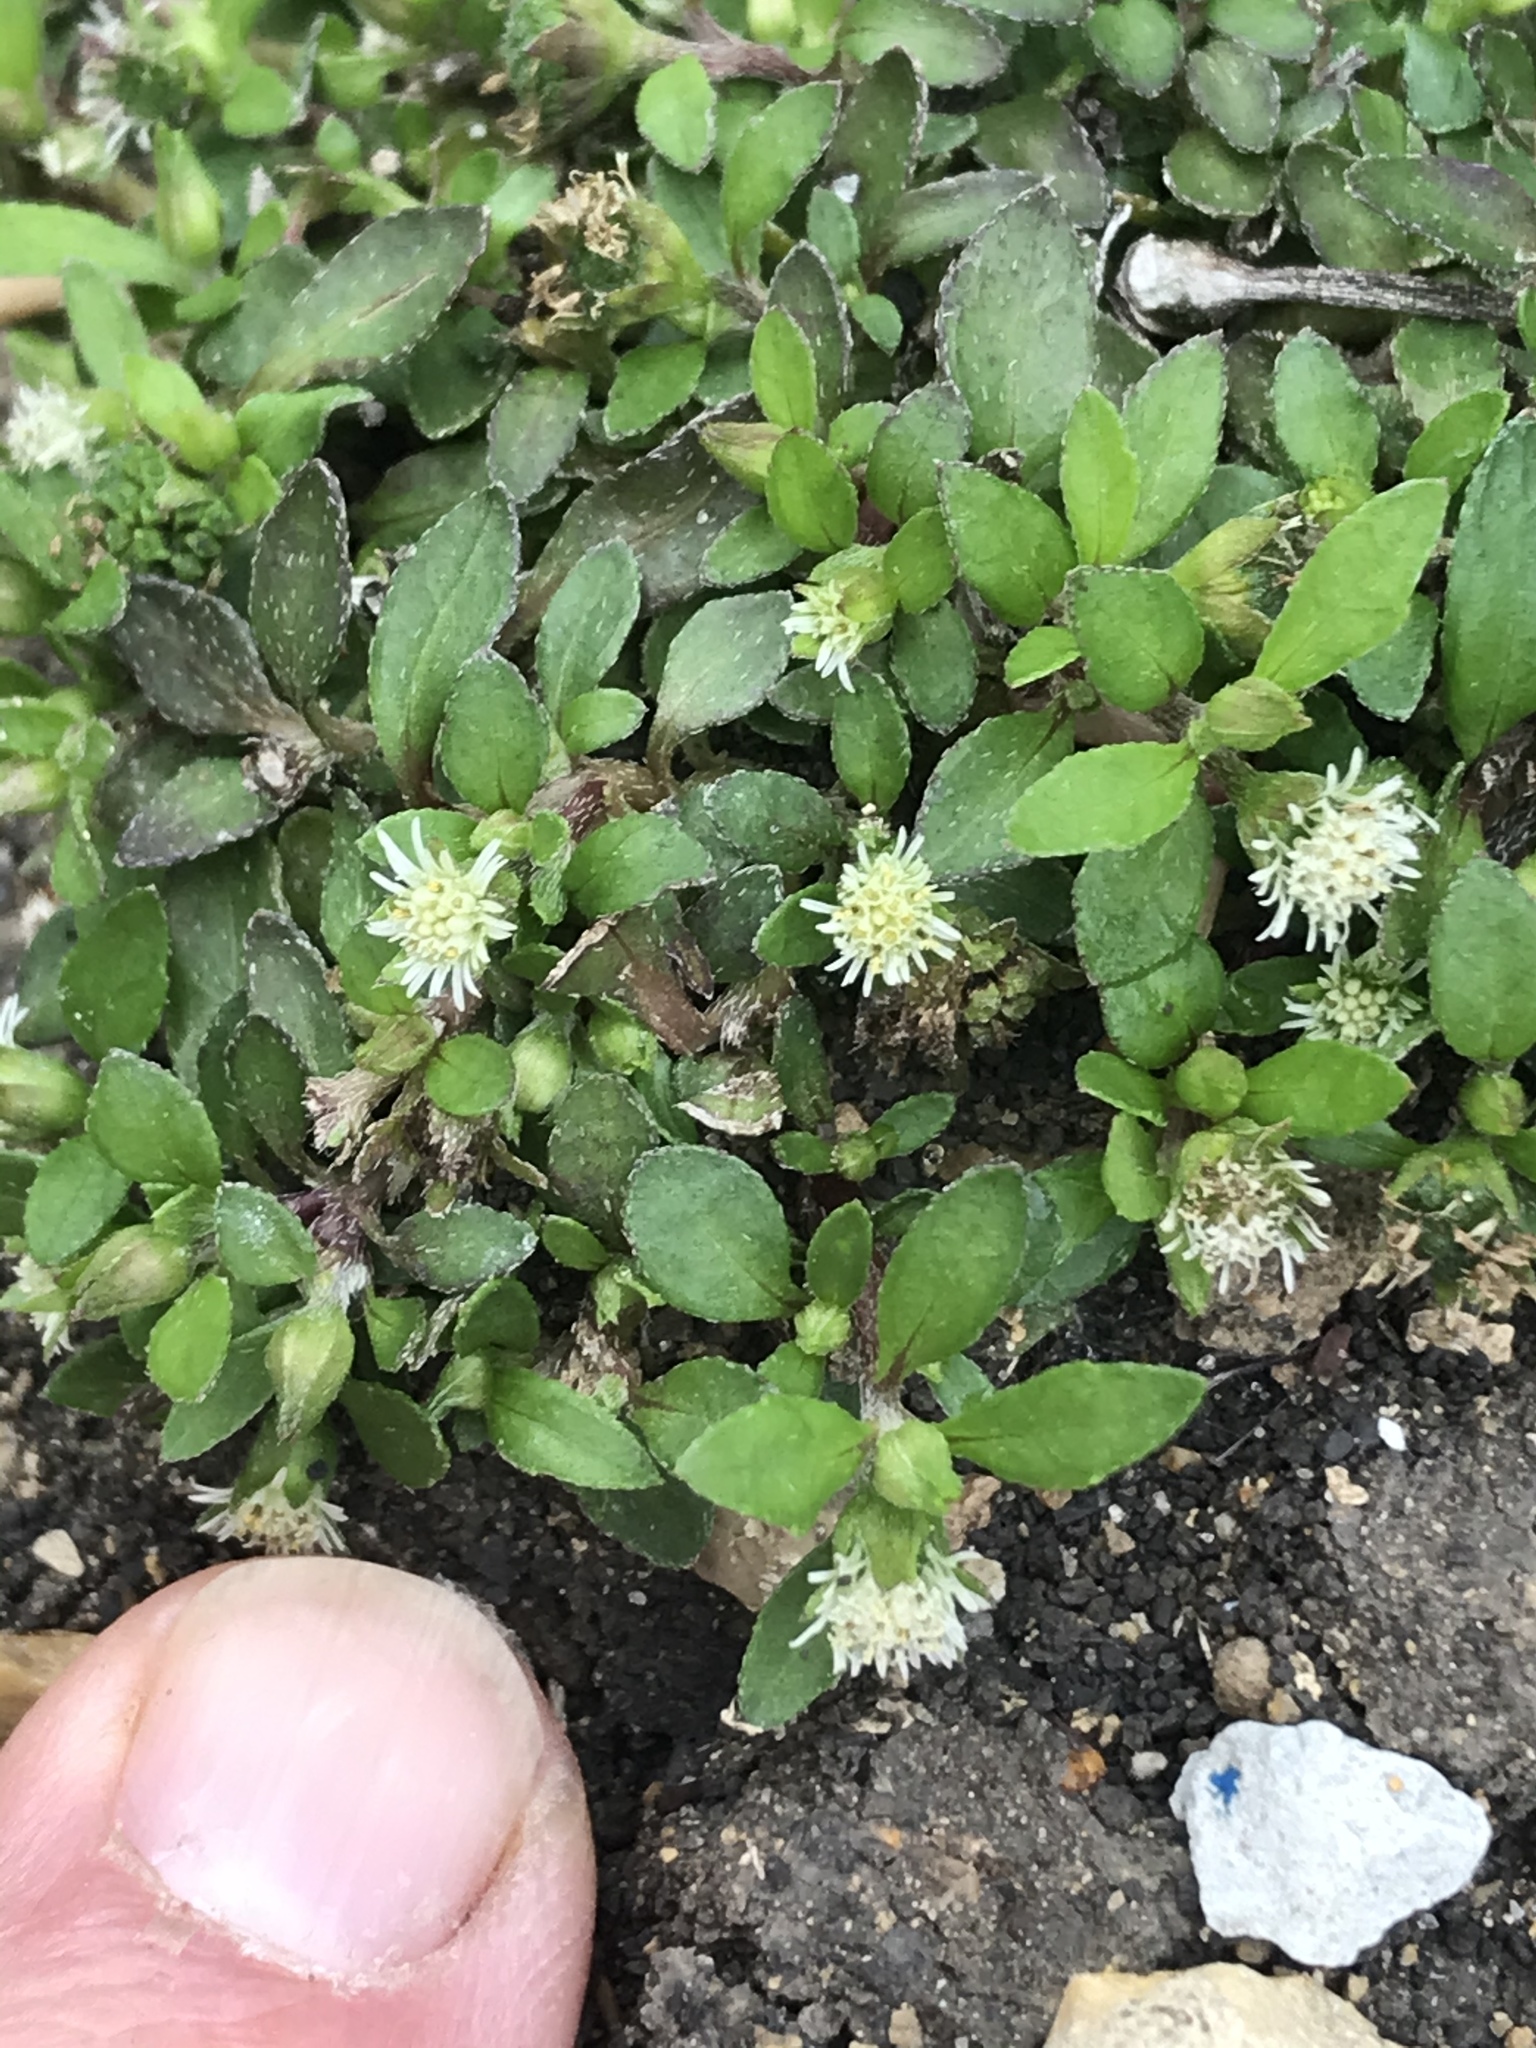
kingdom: Plantae
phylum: Tracheophyta
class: Magnoliopsida
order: Asterales
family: Asteraceae
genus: Eclipta
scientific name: Eclipta prostrata
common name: False daisy
